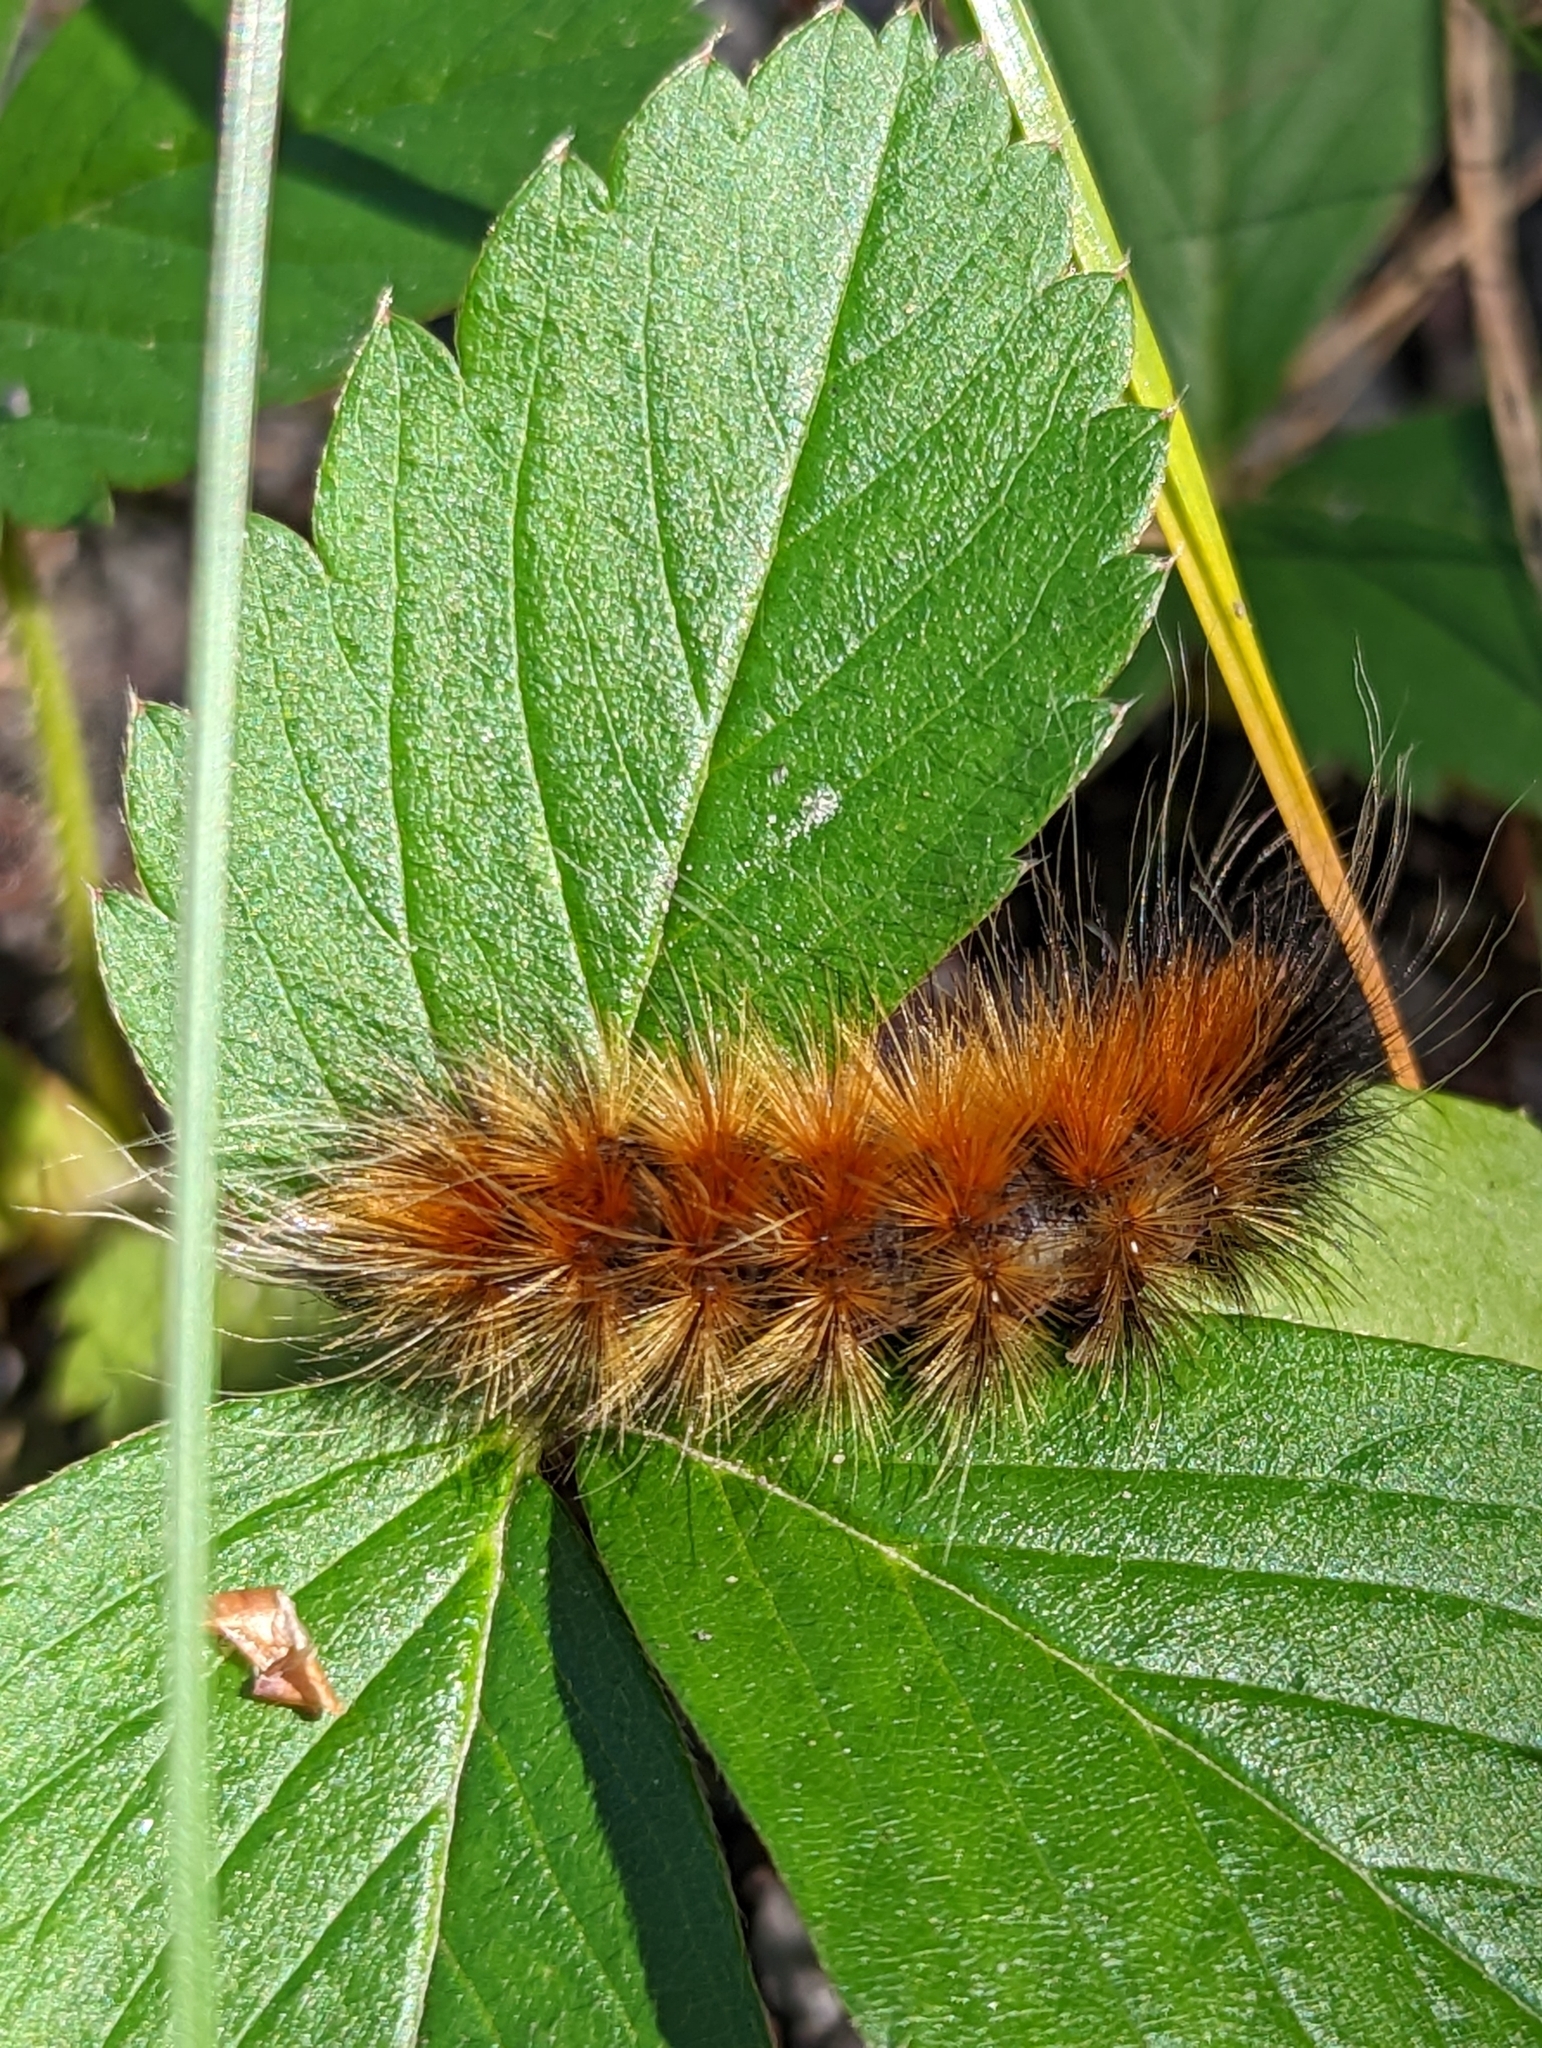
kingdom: Animalia
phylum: Arthropoda
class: Insecta
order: Lepidoptera
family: Erebidae
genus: Spilosoma
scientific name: Spilosoma virginica
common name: Virginia tiger moth
